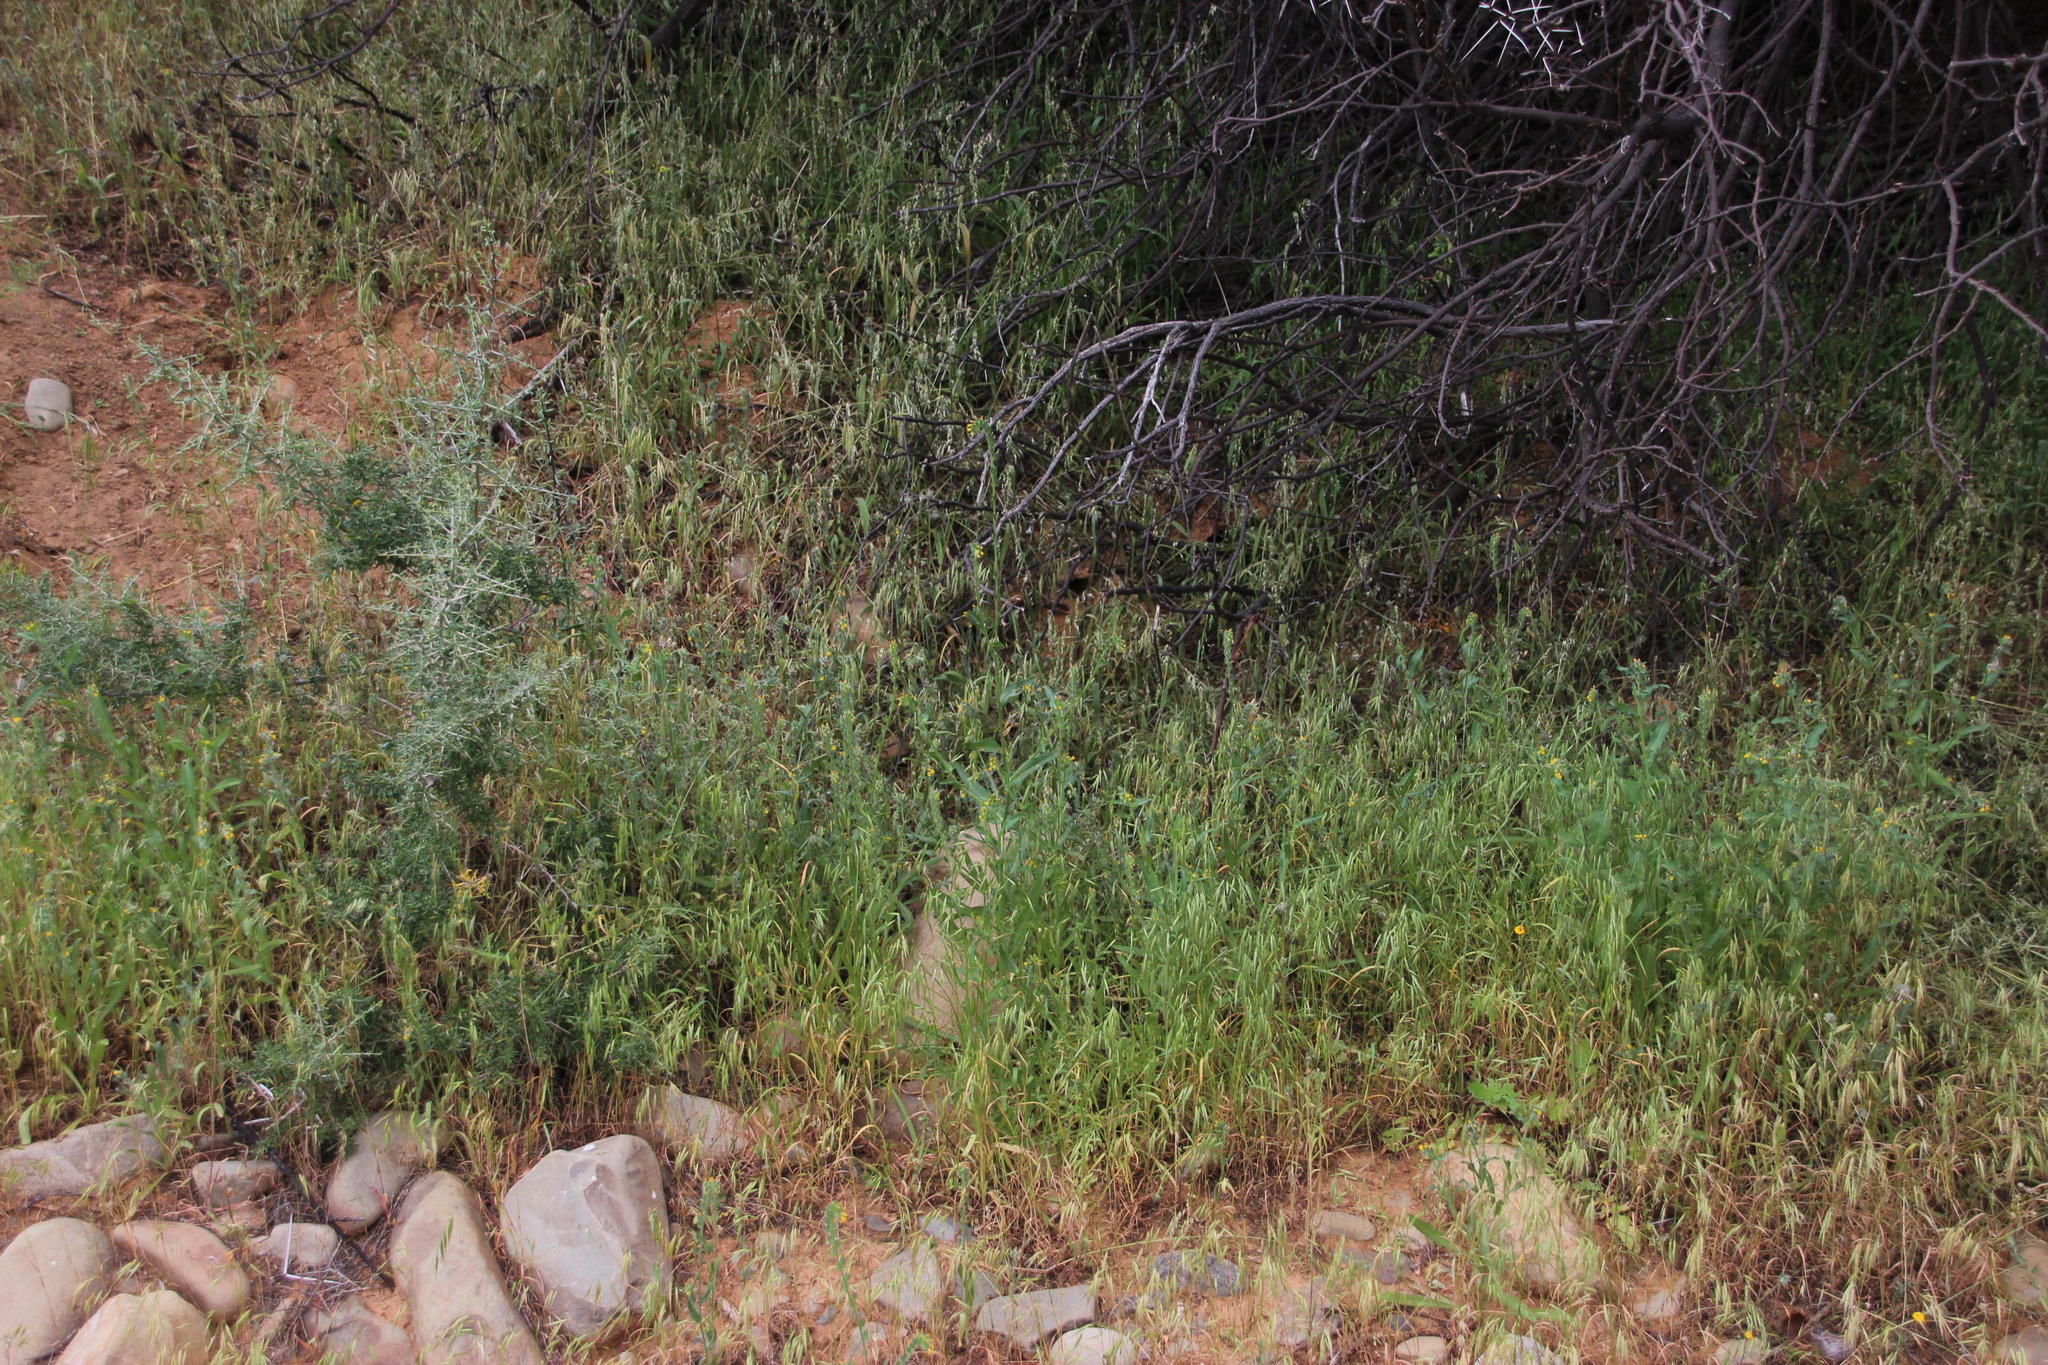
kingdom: Plantae
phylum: Tracheophyta
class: Magnoliopsida
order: Boraginales
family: Boraginaceae
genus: Amsinckia
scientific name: Amsinckia menziesii
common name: Menzies' fiddleneck
